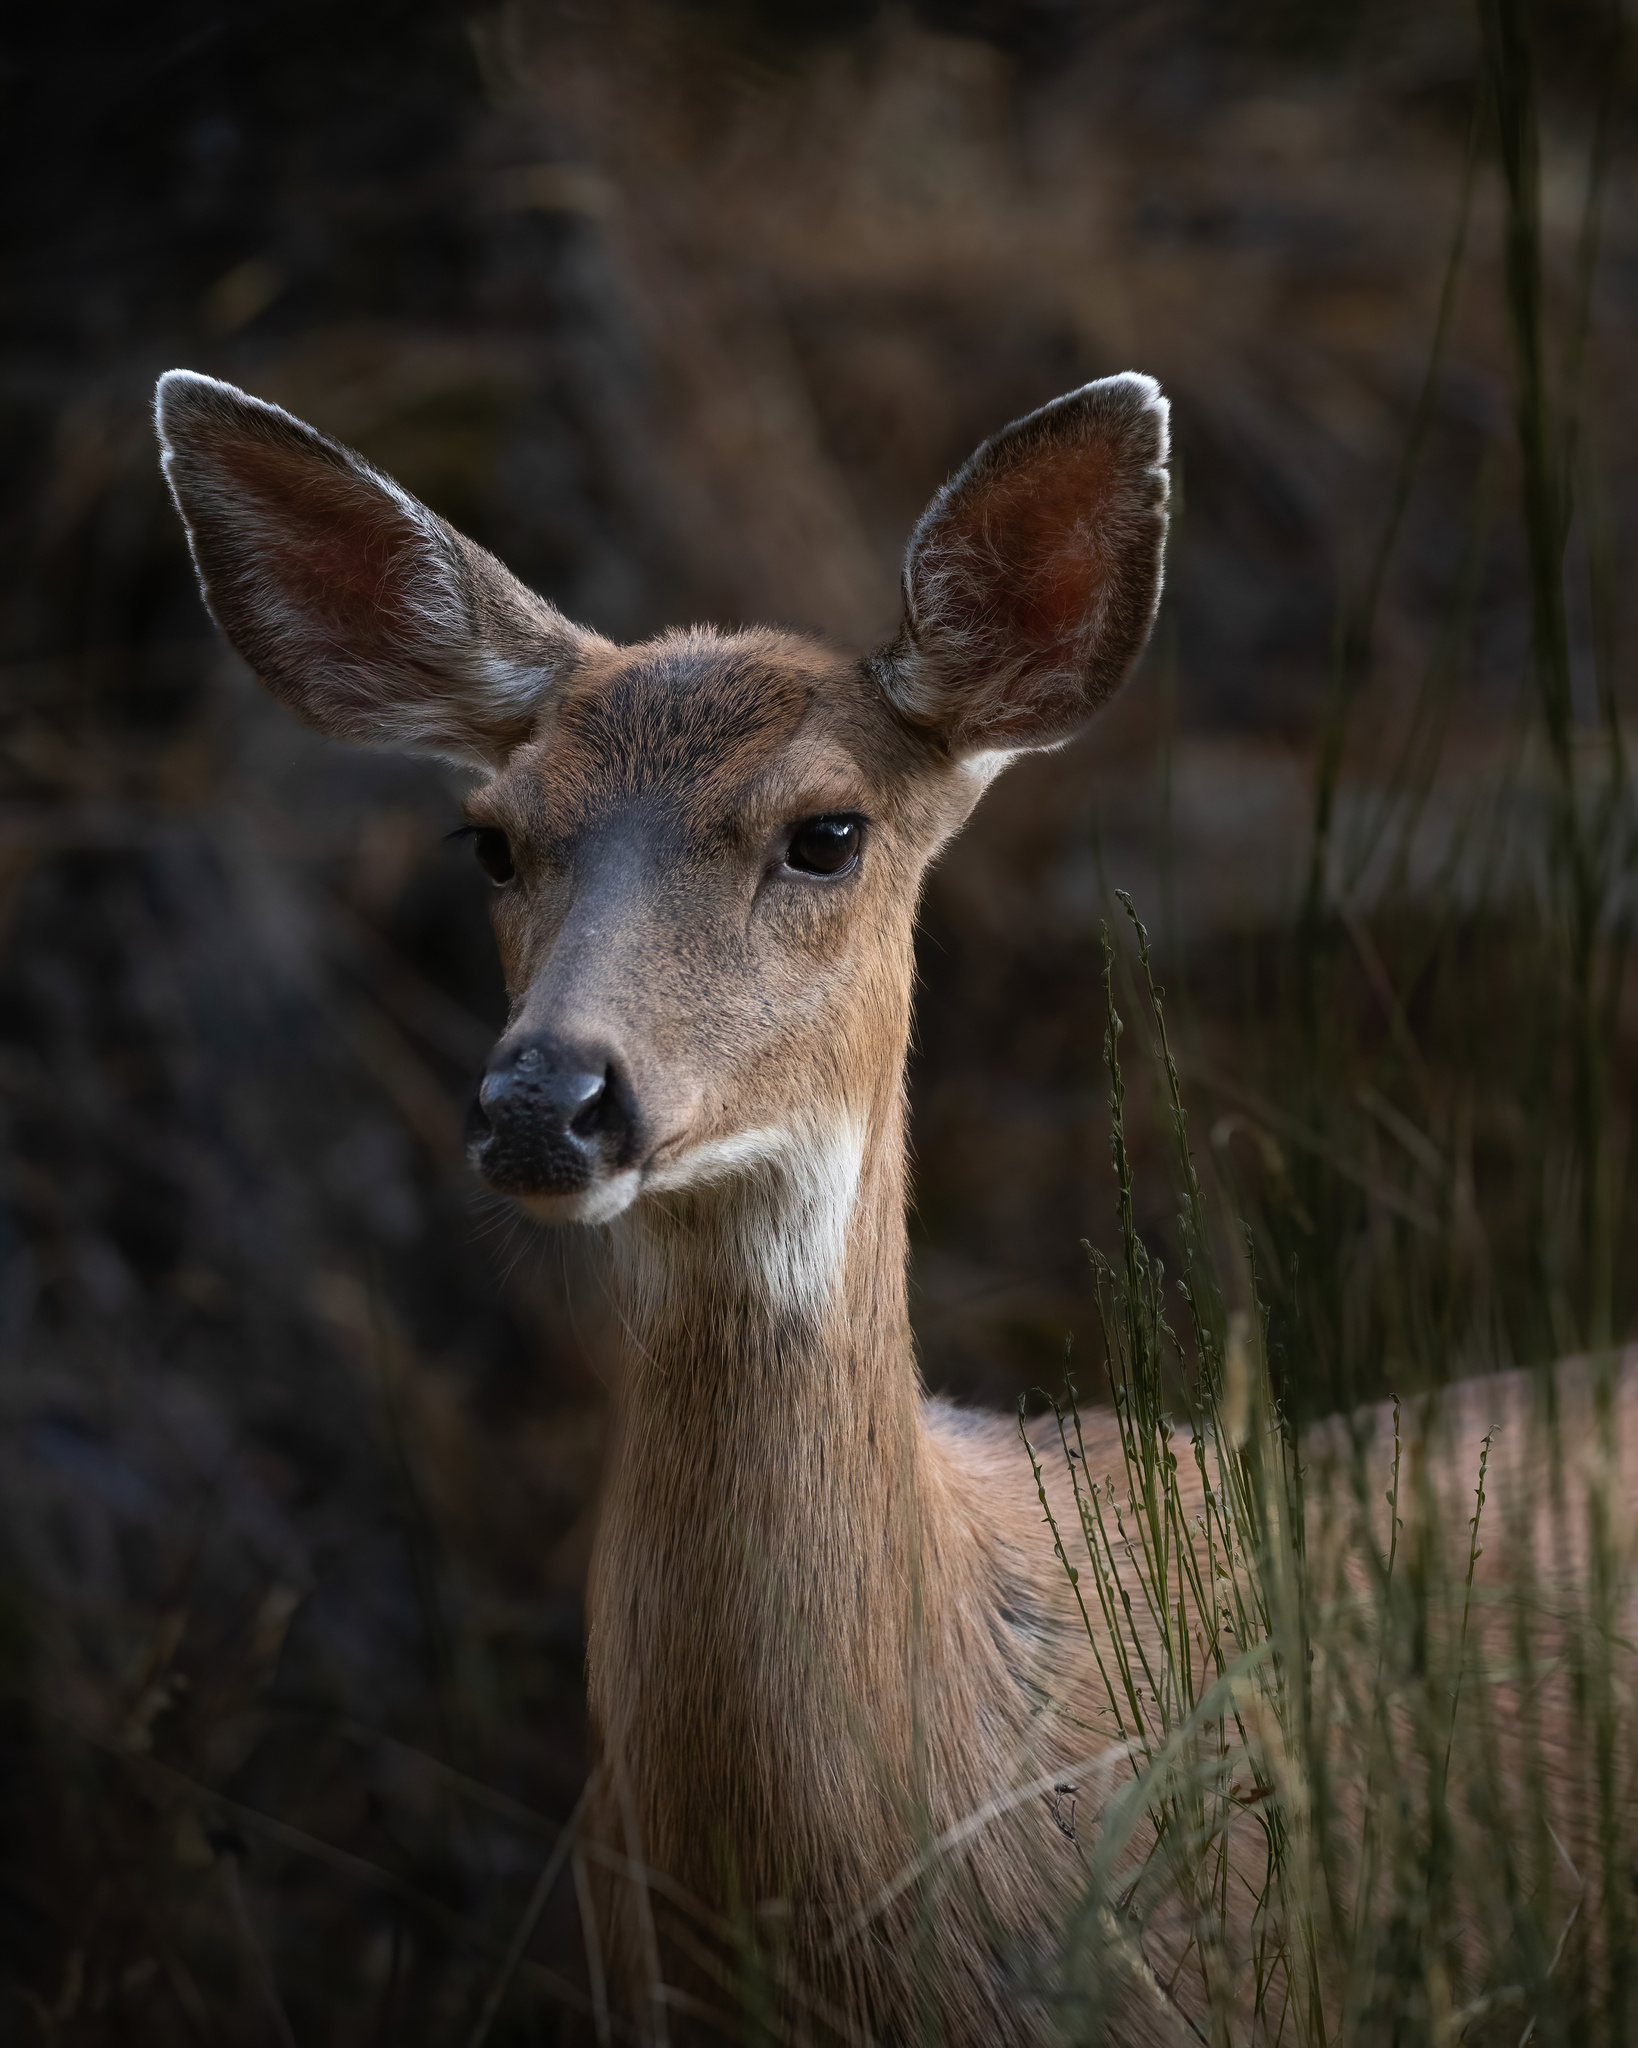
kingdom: Animalia
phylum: Chordata
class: Mammalia
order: Artiodactyla
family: Cervidae
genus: Odocoileus
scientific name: Odocoileus hemionus
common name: Mule deer
